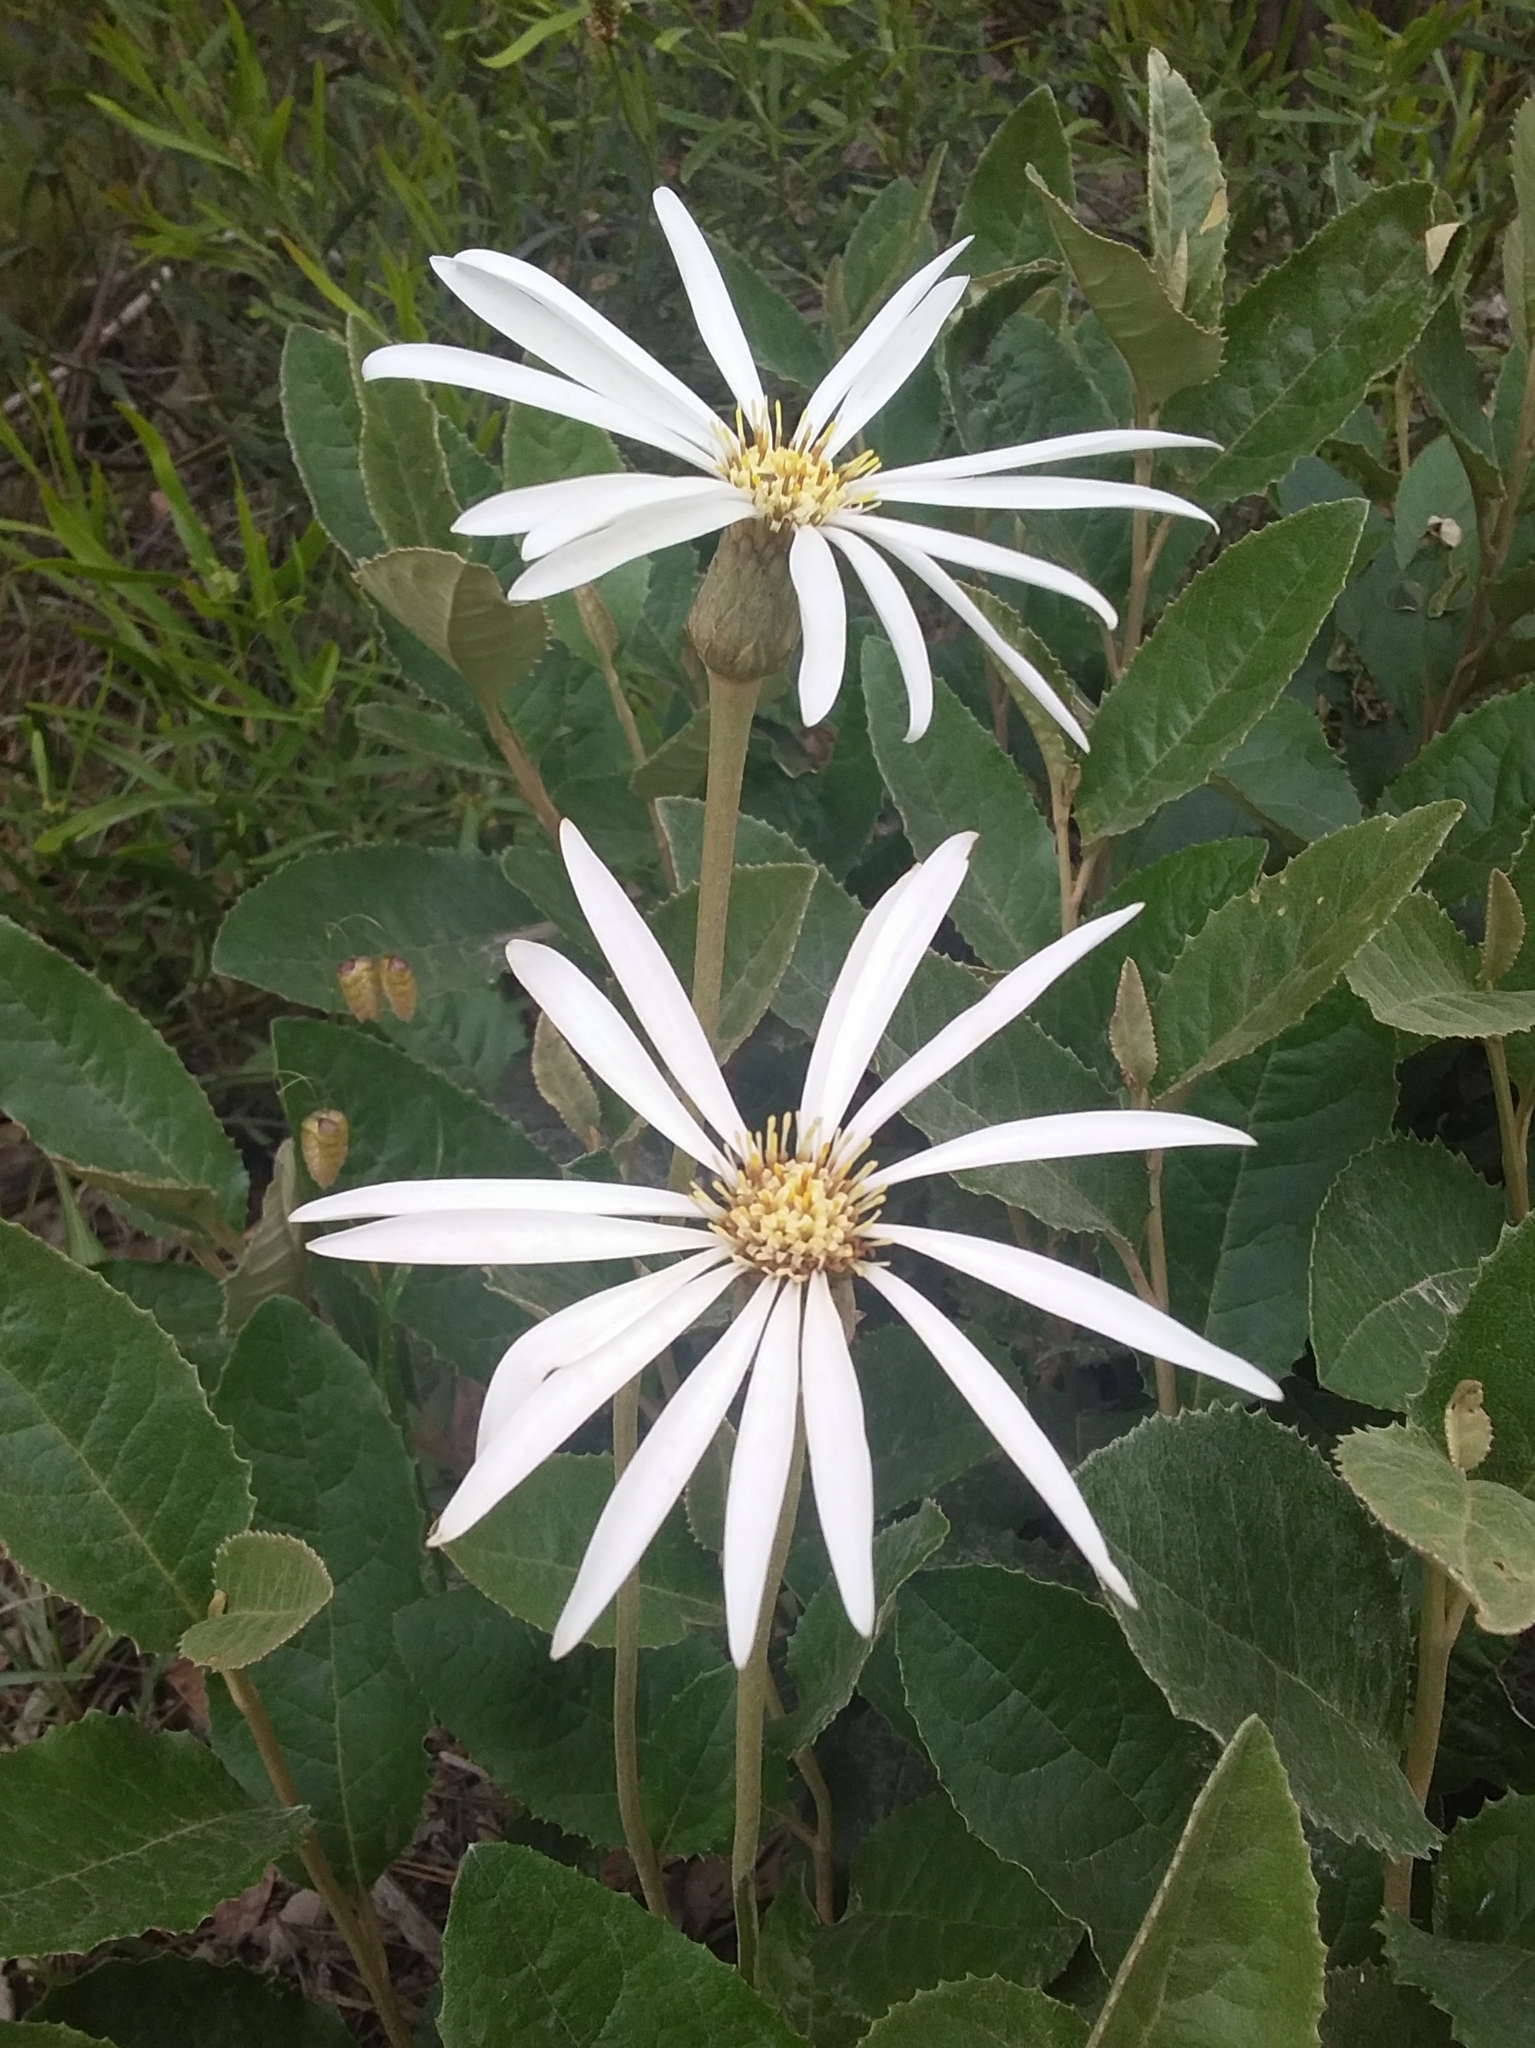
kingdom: Plantae
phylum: Tracheophyta
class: Magnoliopsida
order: Asterales
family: Asteraceae
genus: Olearia
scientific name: Olearia grandiflora
